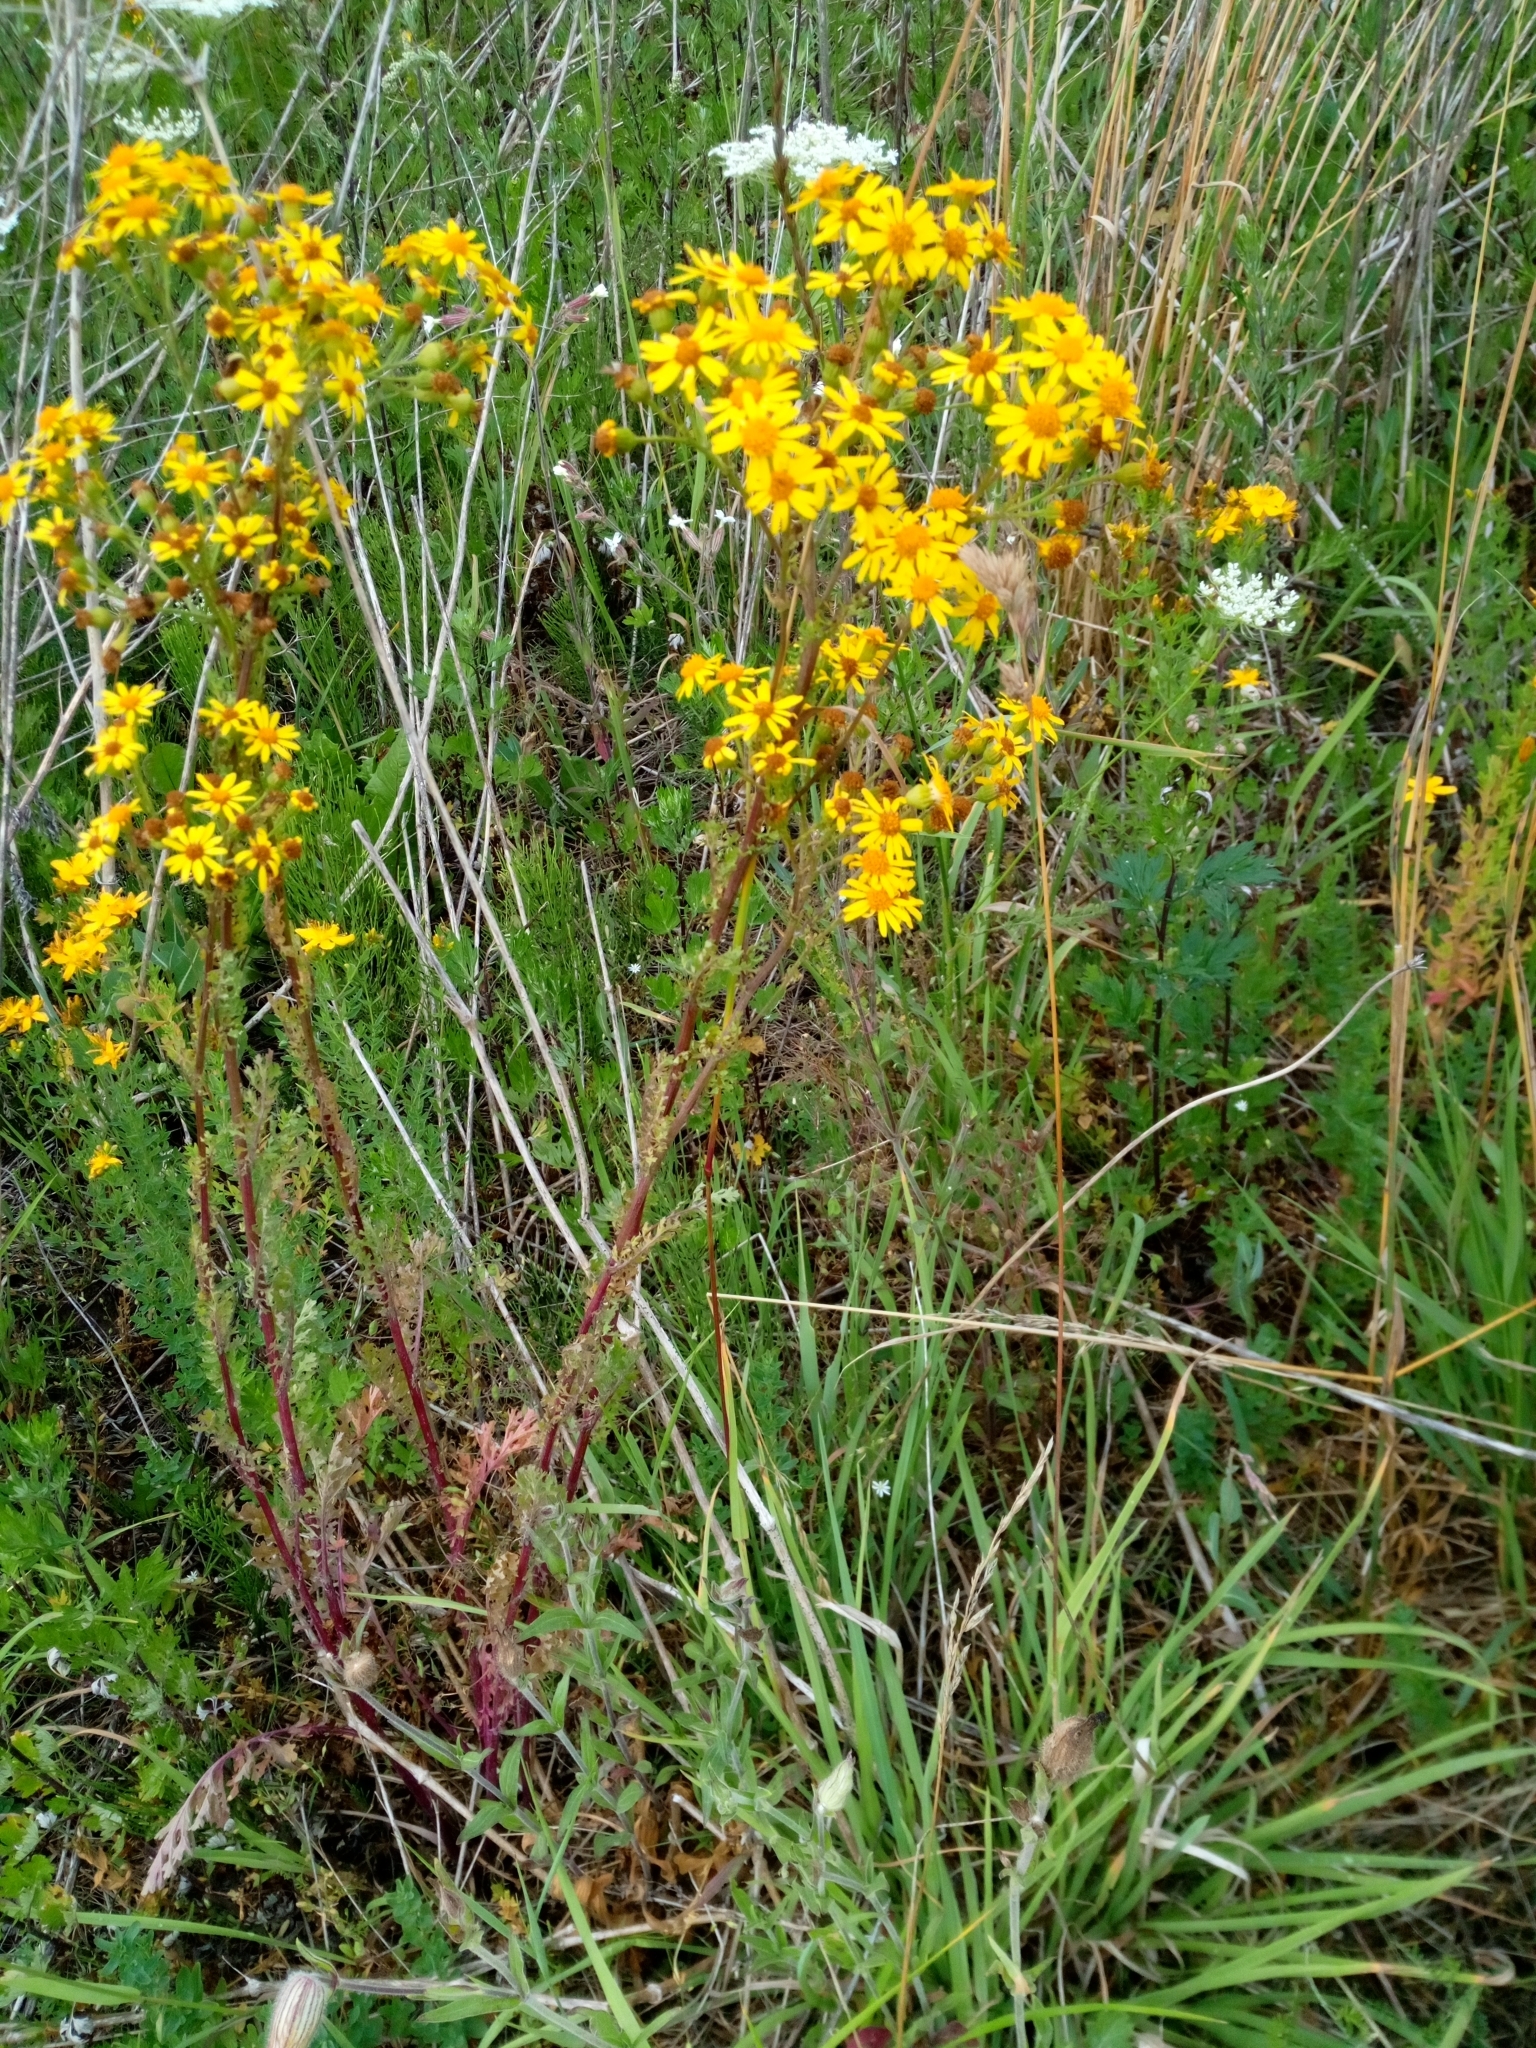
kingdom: Plantae
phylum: Tracheophyta
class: Magnoliopsida
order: Asterales
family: Asteraceae
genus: Jacobaea
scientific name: Jacobaea vulgaris
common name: Stinking willie
